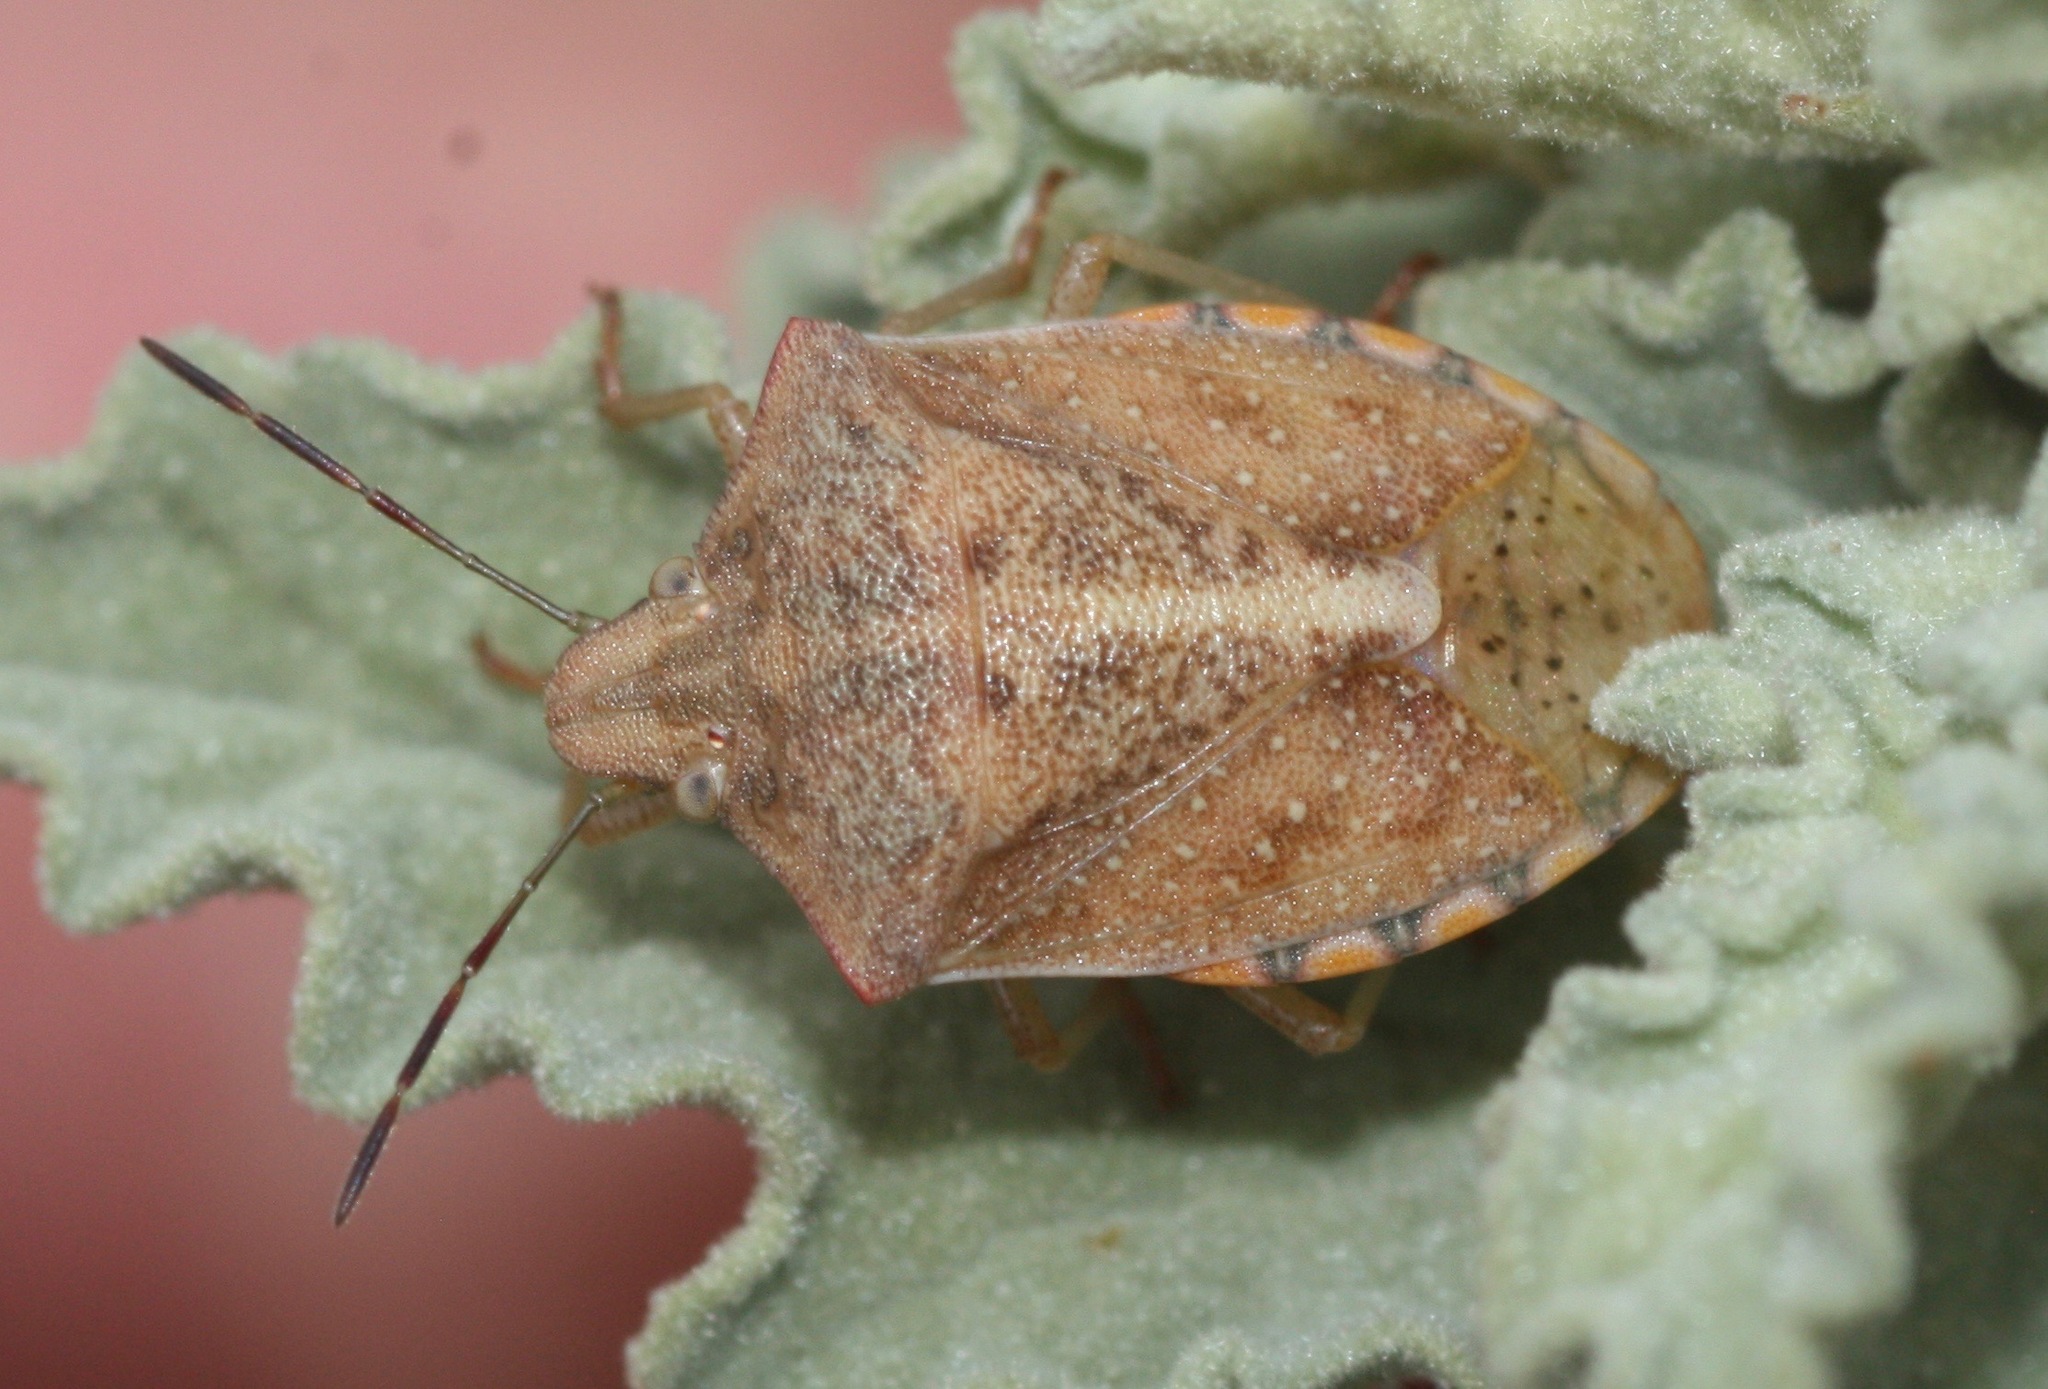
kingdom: Animalia
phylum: Arthropoda
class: Insecta
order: Hemiptera
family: Pentatomidae
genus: Thyanta
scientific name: Thyanta accerra
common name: Stink bug
